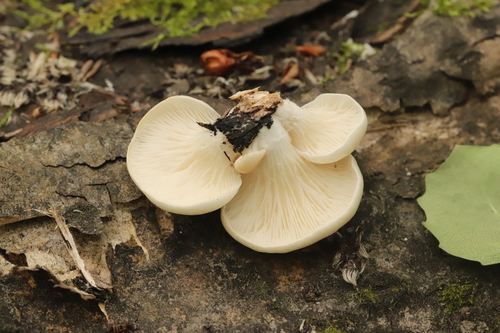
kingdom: Fungi
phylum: Basidiomycota
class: Agaricomycetes
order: Agaricales
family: Pleurotaceae
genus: Pleurotus
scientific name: Pleurotus pulmonarius
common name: Pale oyster
